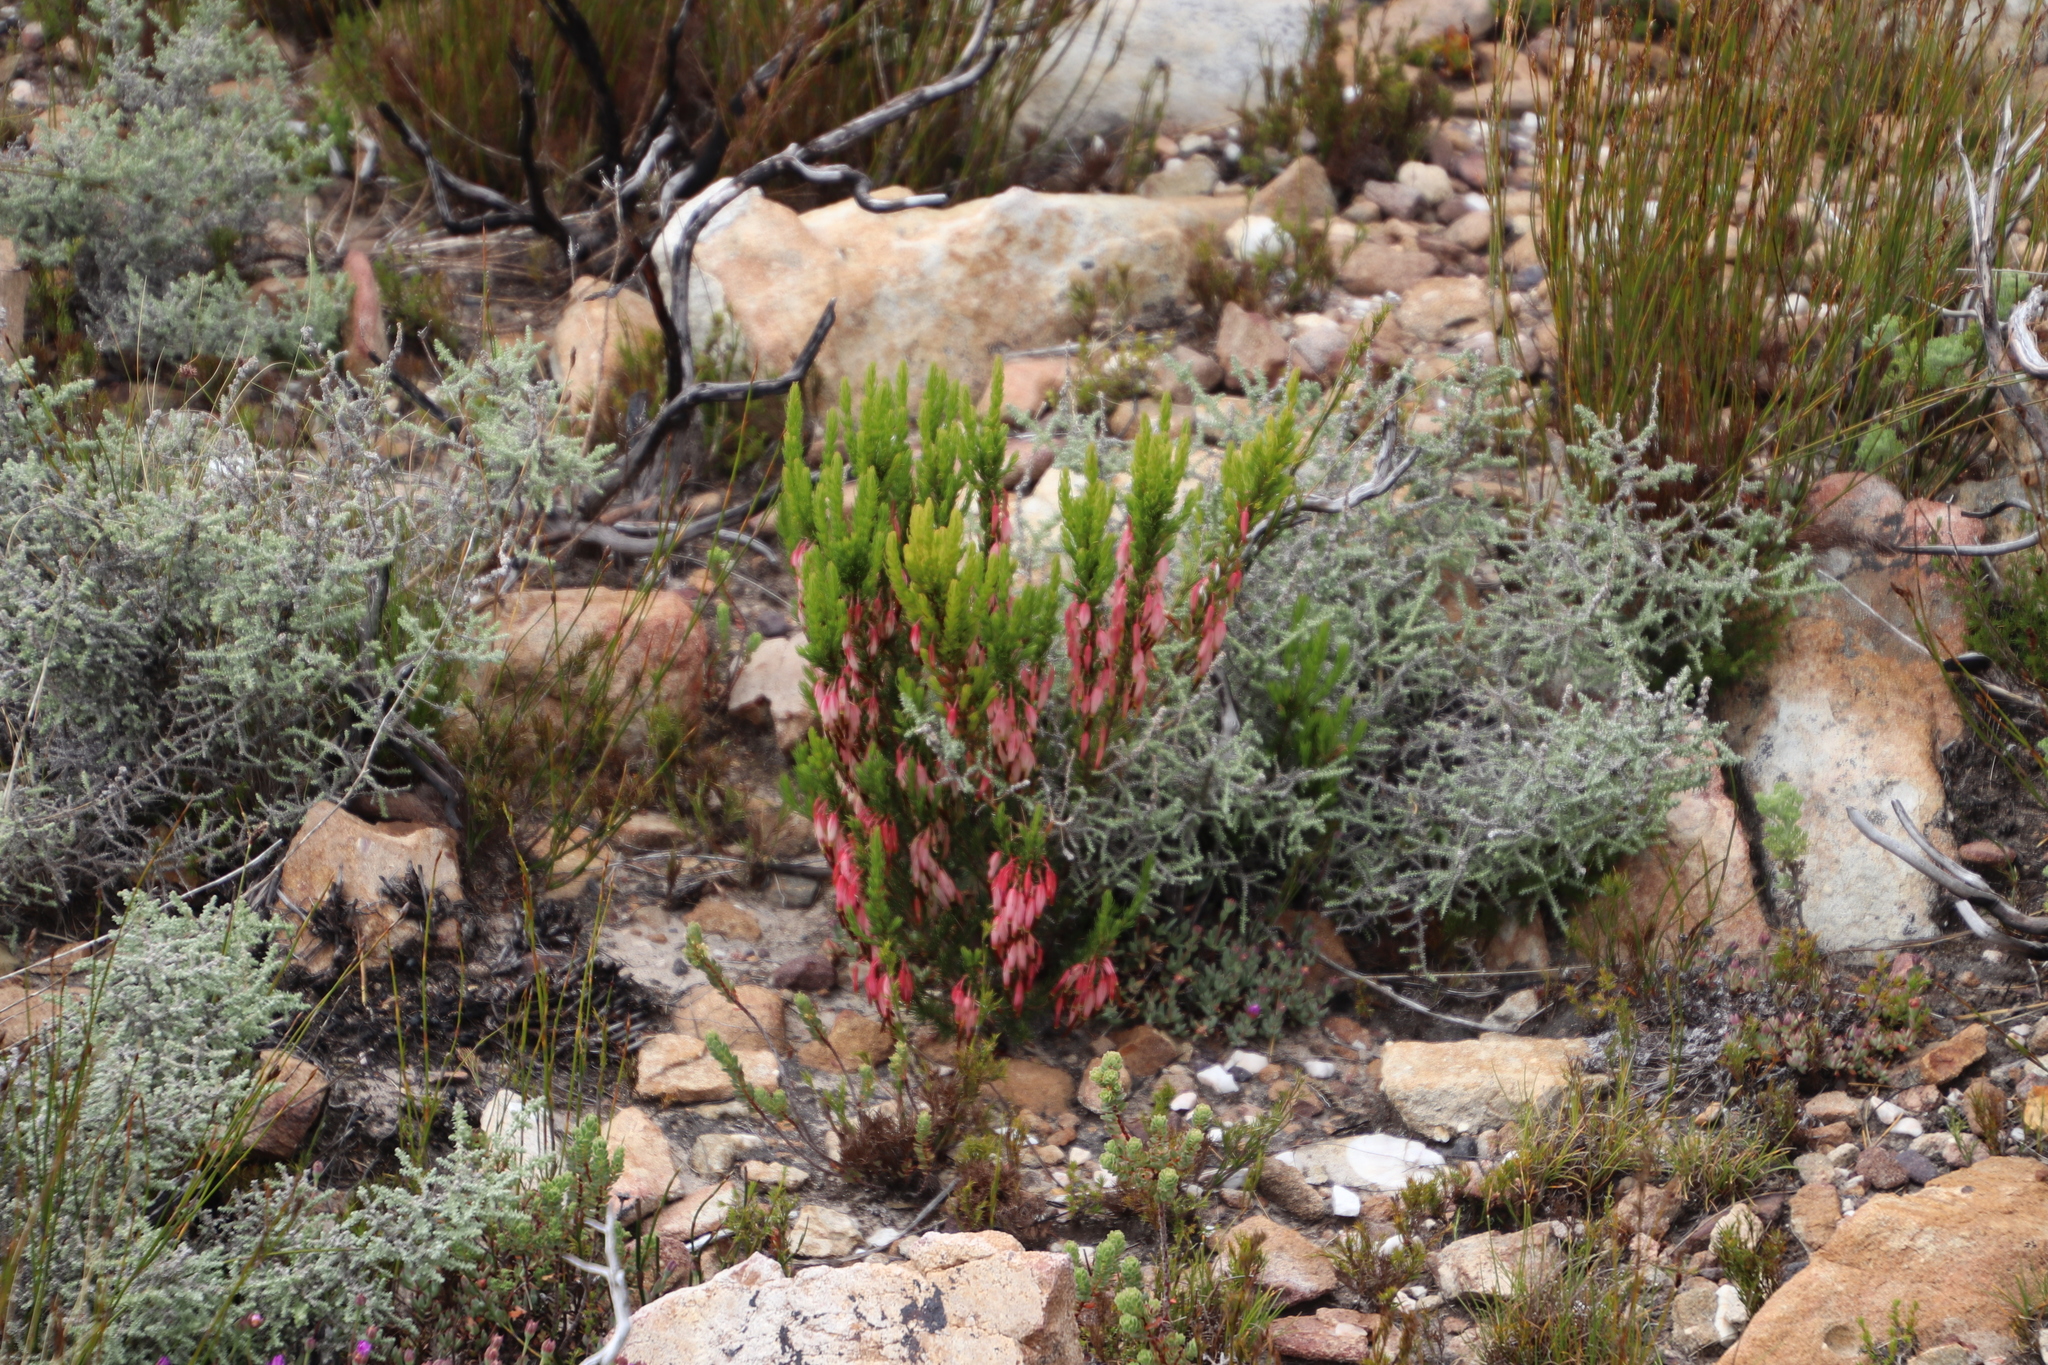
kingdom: Plantae
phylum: Tracheophyta
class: Magnoliopsida
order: Ericales
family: Ericaceae
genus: Erica
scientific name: Erica plukenetii
